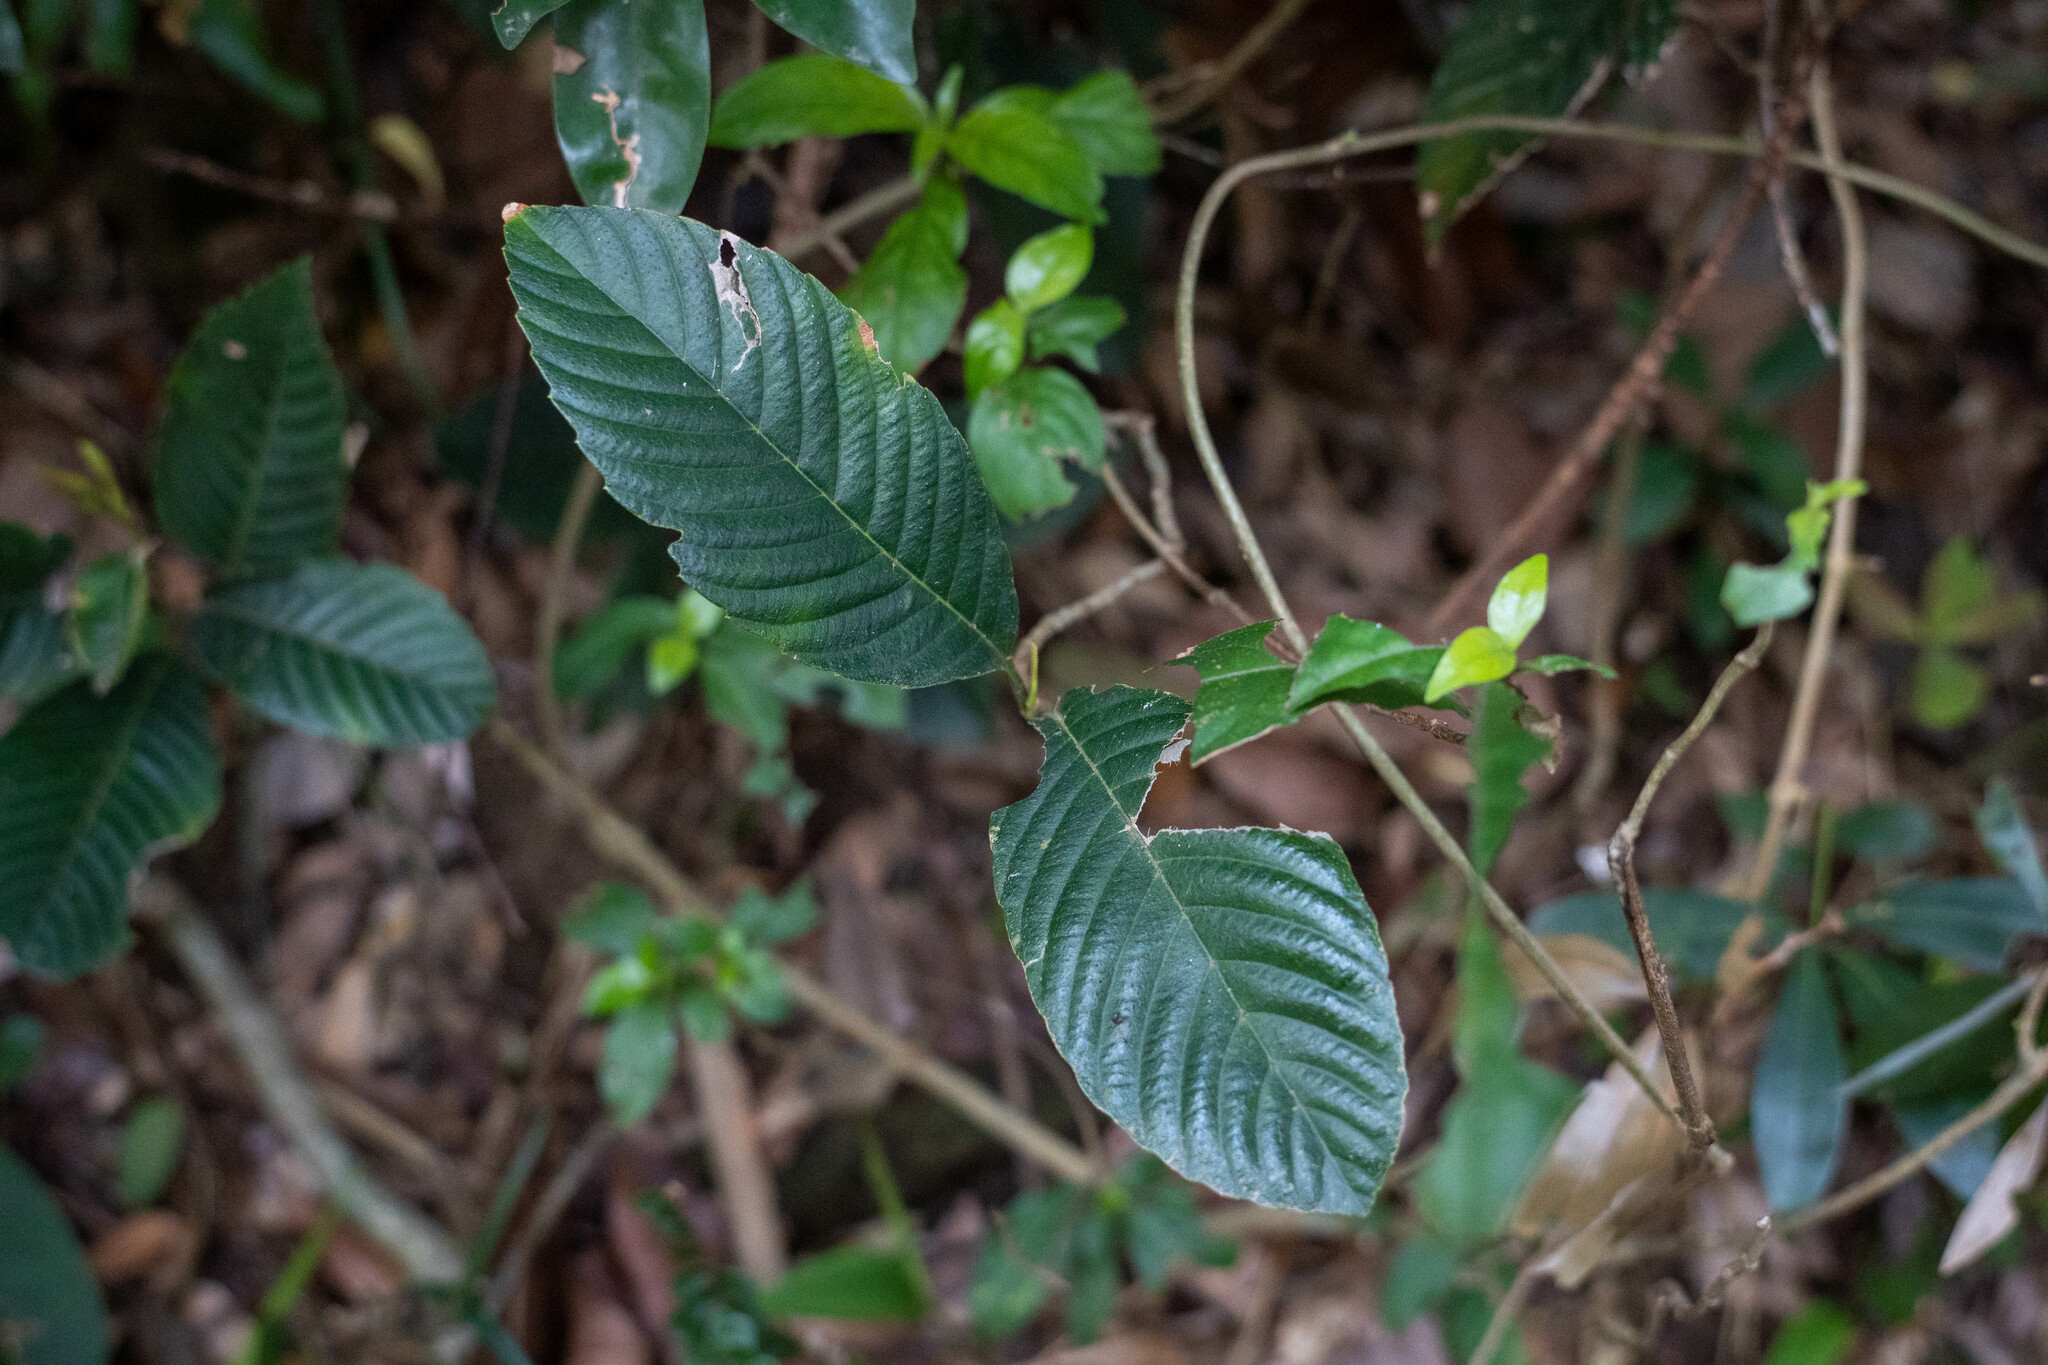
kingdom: Plantae
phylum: Tracheophyta
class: Magnoliopsida
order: Dilleniales
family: Dilleniaceae
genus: Tetracera
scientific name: Tetracera sarmentosa
